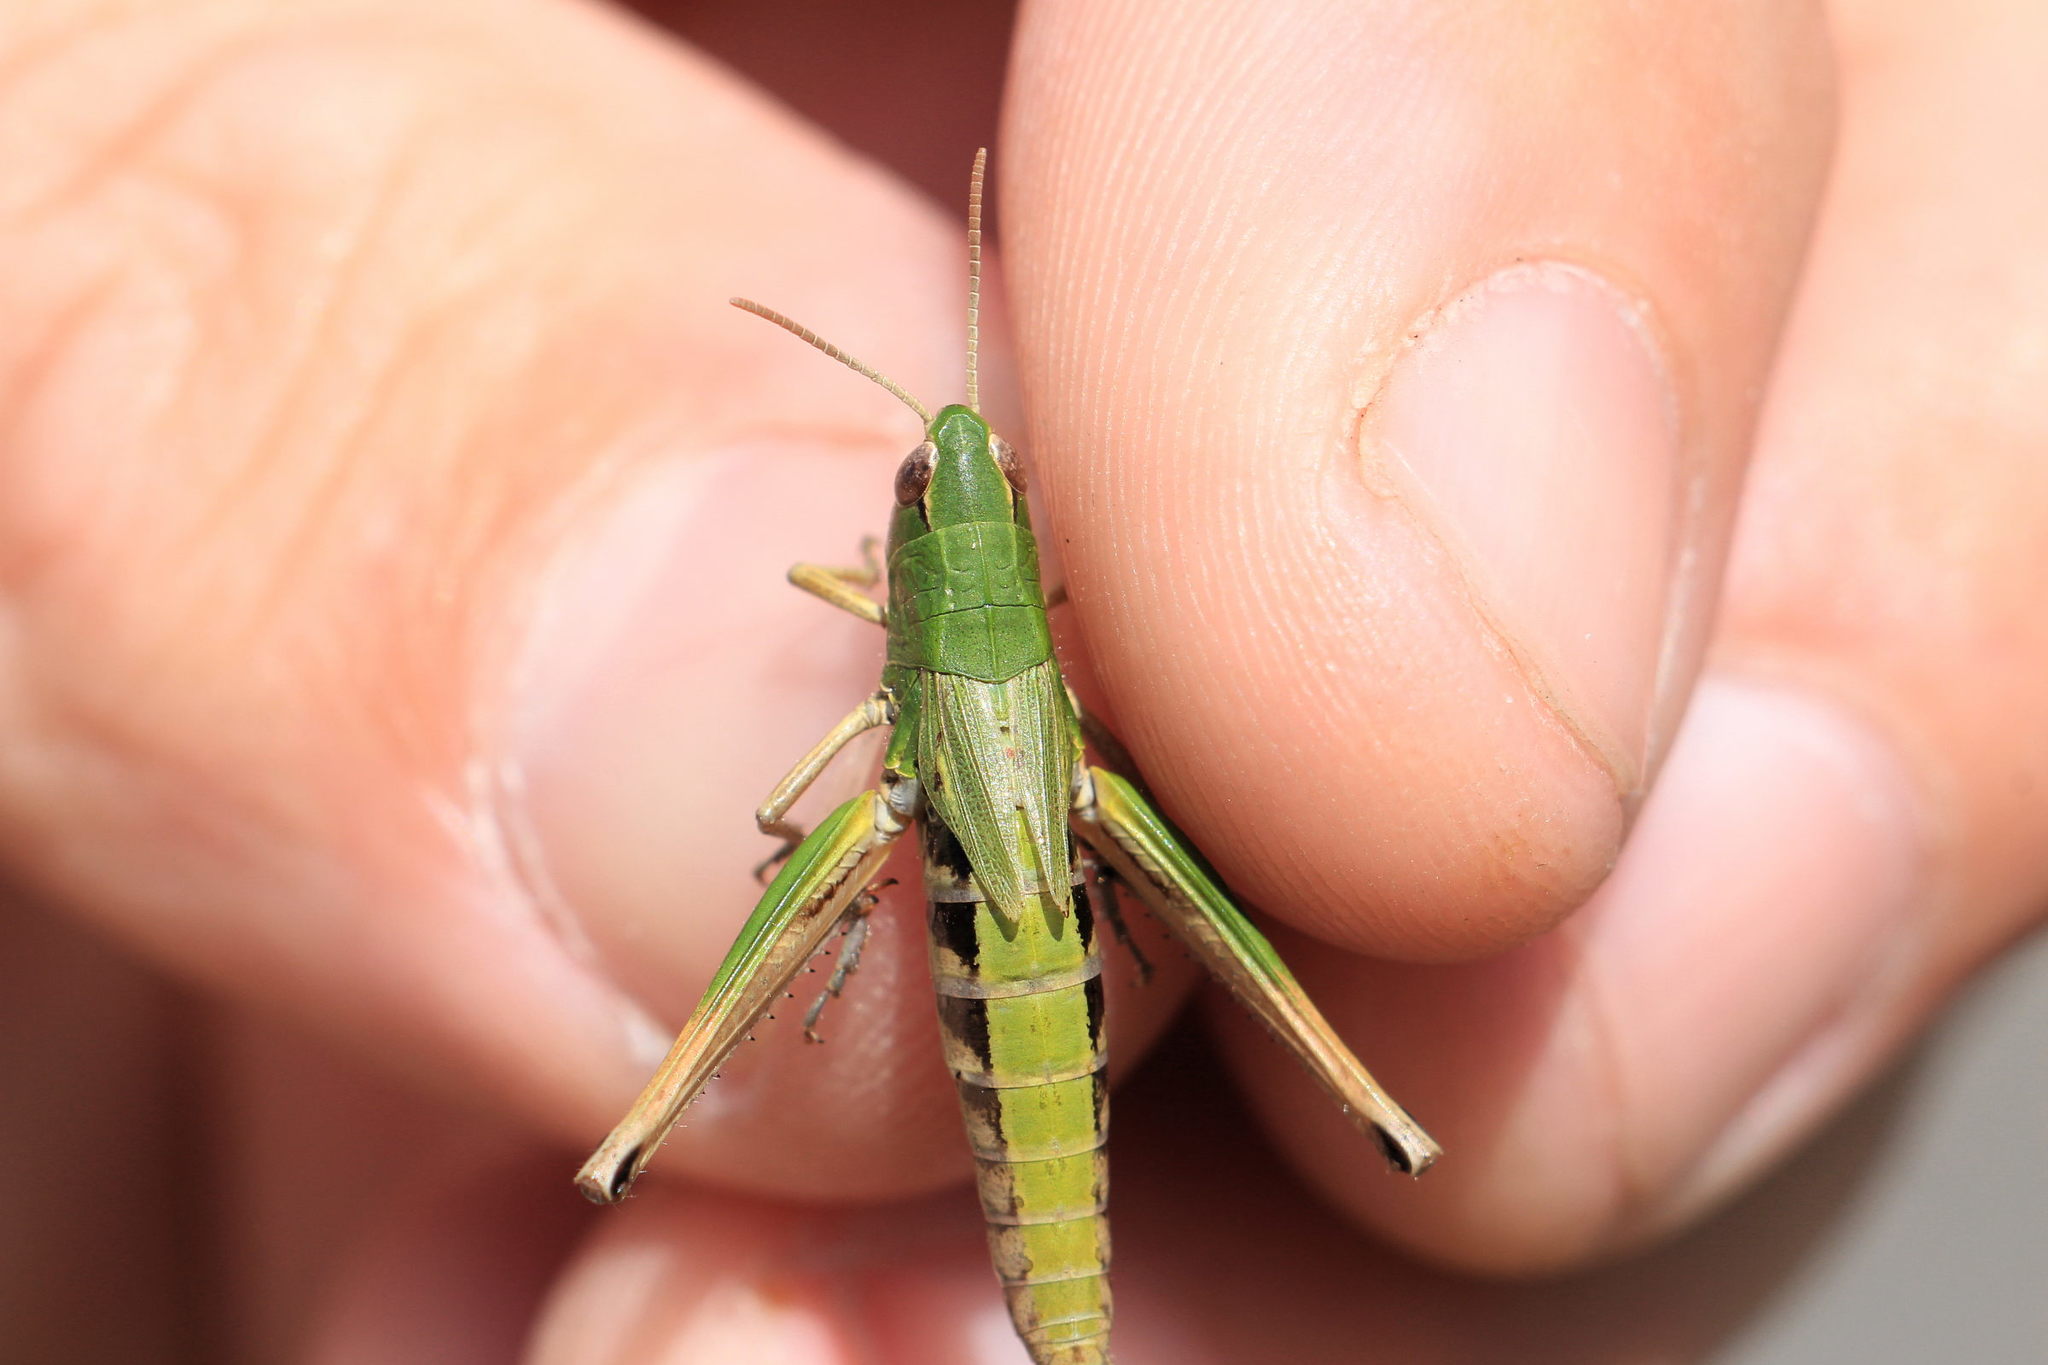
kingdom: Animalia
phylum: Arthropoda
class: Insecta
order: Orthoptera
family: Acrididae
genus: Pseudochorthippus
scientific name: Pseudochorthippus parallelus
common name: Meadow grasshopper
